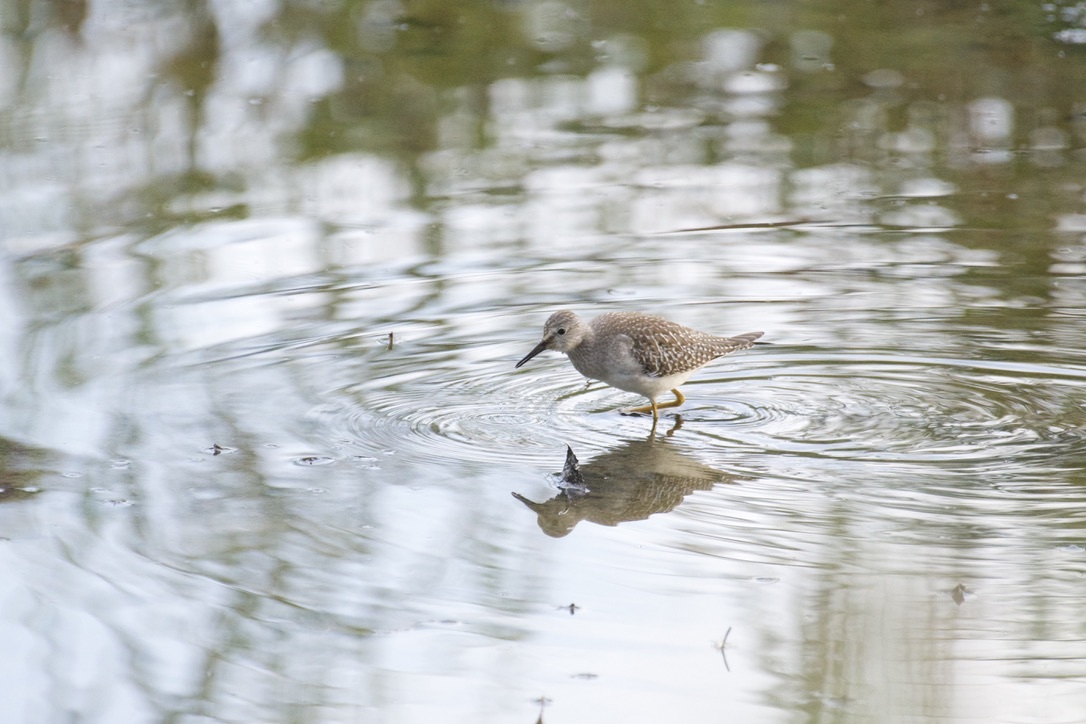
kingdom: Animalia
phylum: Chordata
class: Aves
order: Charadriiformes
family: Scolopacidae
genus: Tringa
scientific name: Tringa flavipes
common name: Lesser yellowlegs
